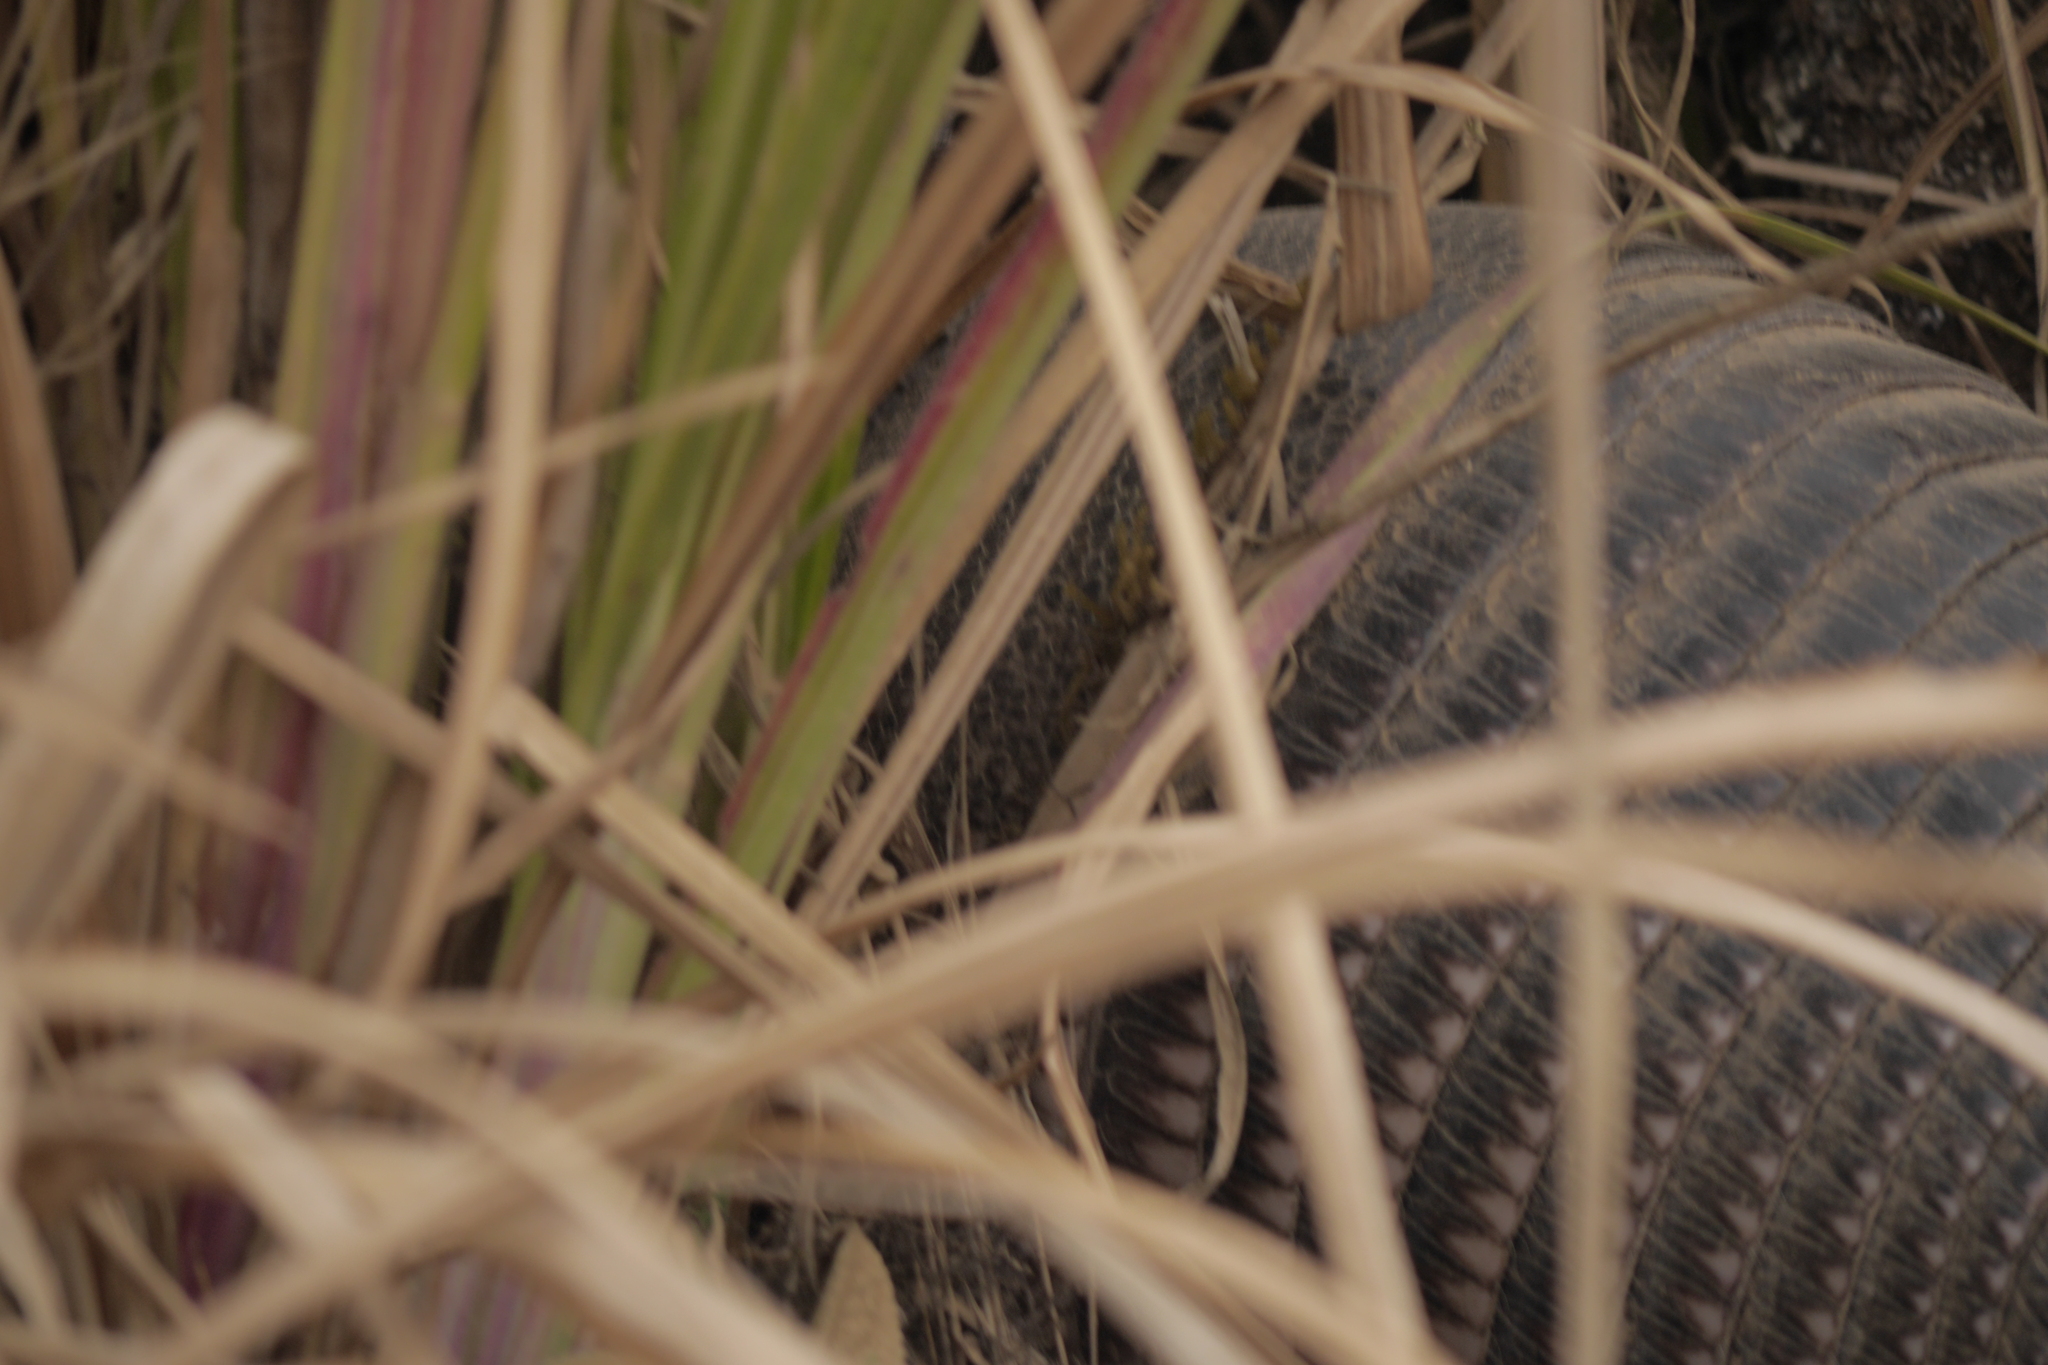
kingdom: Animalia
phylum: Chordata
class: Mammalia
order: Cingulata
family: Dasypodidae
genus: Dasypus
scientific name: Dasypus novemcinctus
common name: Nine-banded armadillo
